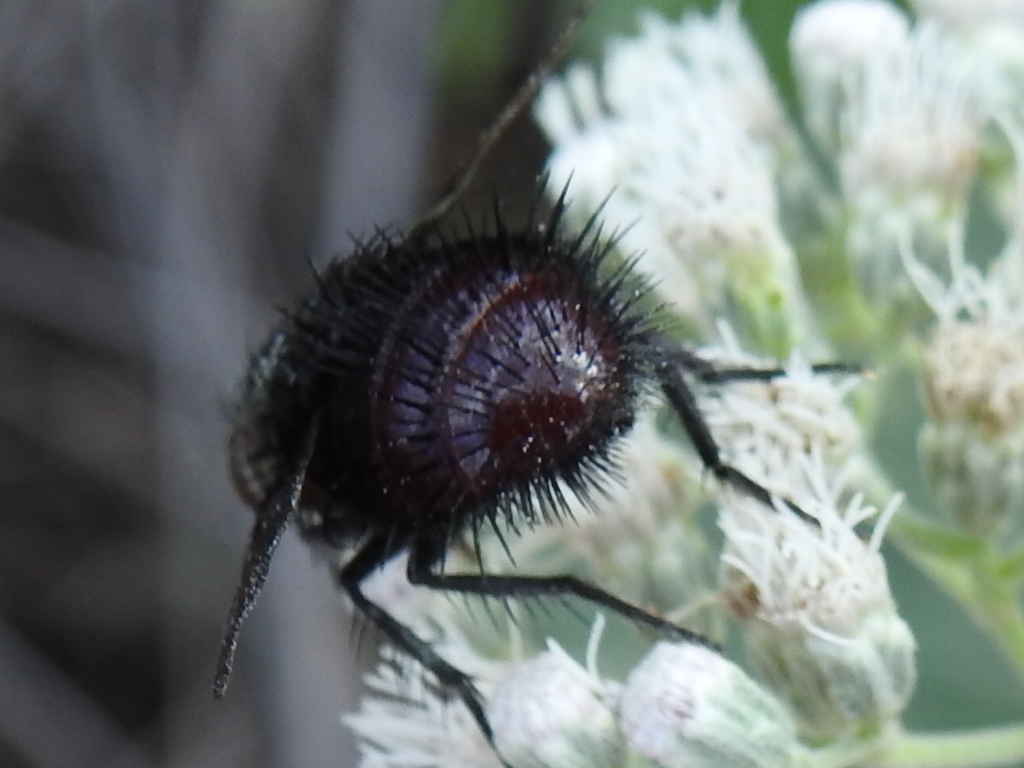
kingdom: Animalia
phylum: Arthropoda
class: Insecta
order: Diptera
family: Tachinidae
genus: Juriniopsis
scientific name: Juriniopsis adusta
